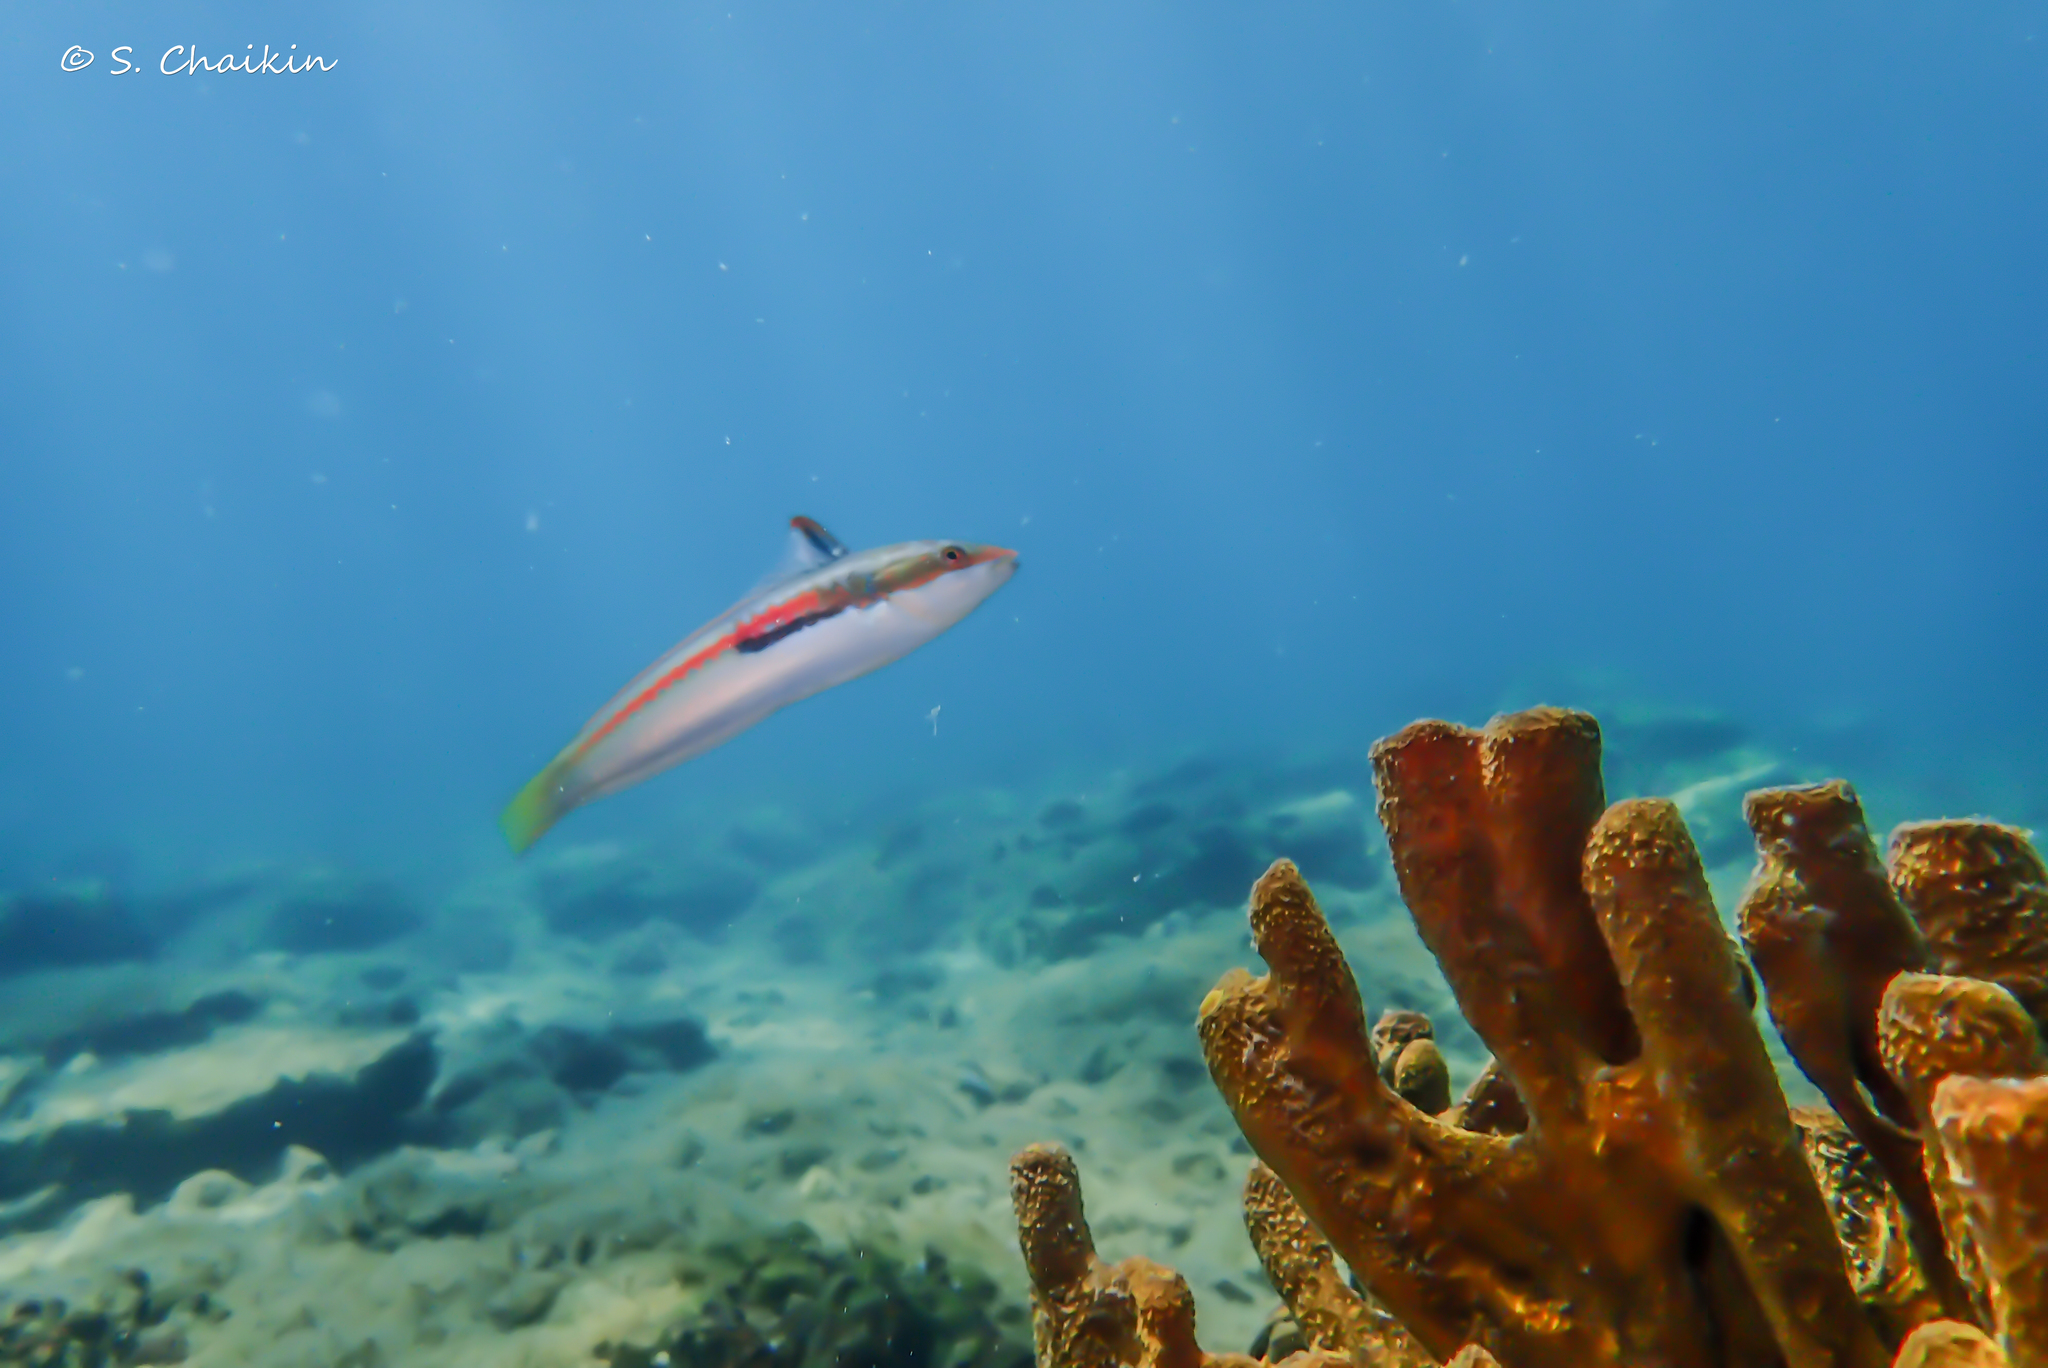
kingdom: Animalia
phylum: Porifera
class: Demospongiae
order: Verongiida
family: Aplysinidae
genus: Aplysina
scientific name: Aplysina aerophoba
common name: Aureate sponge
